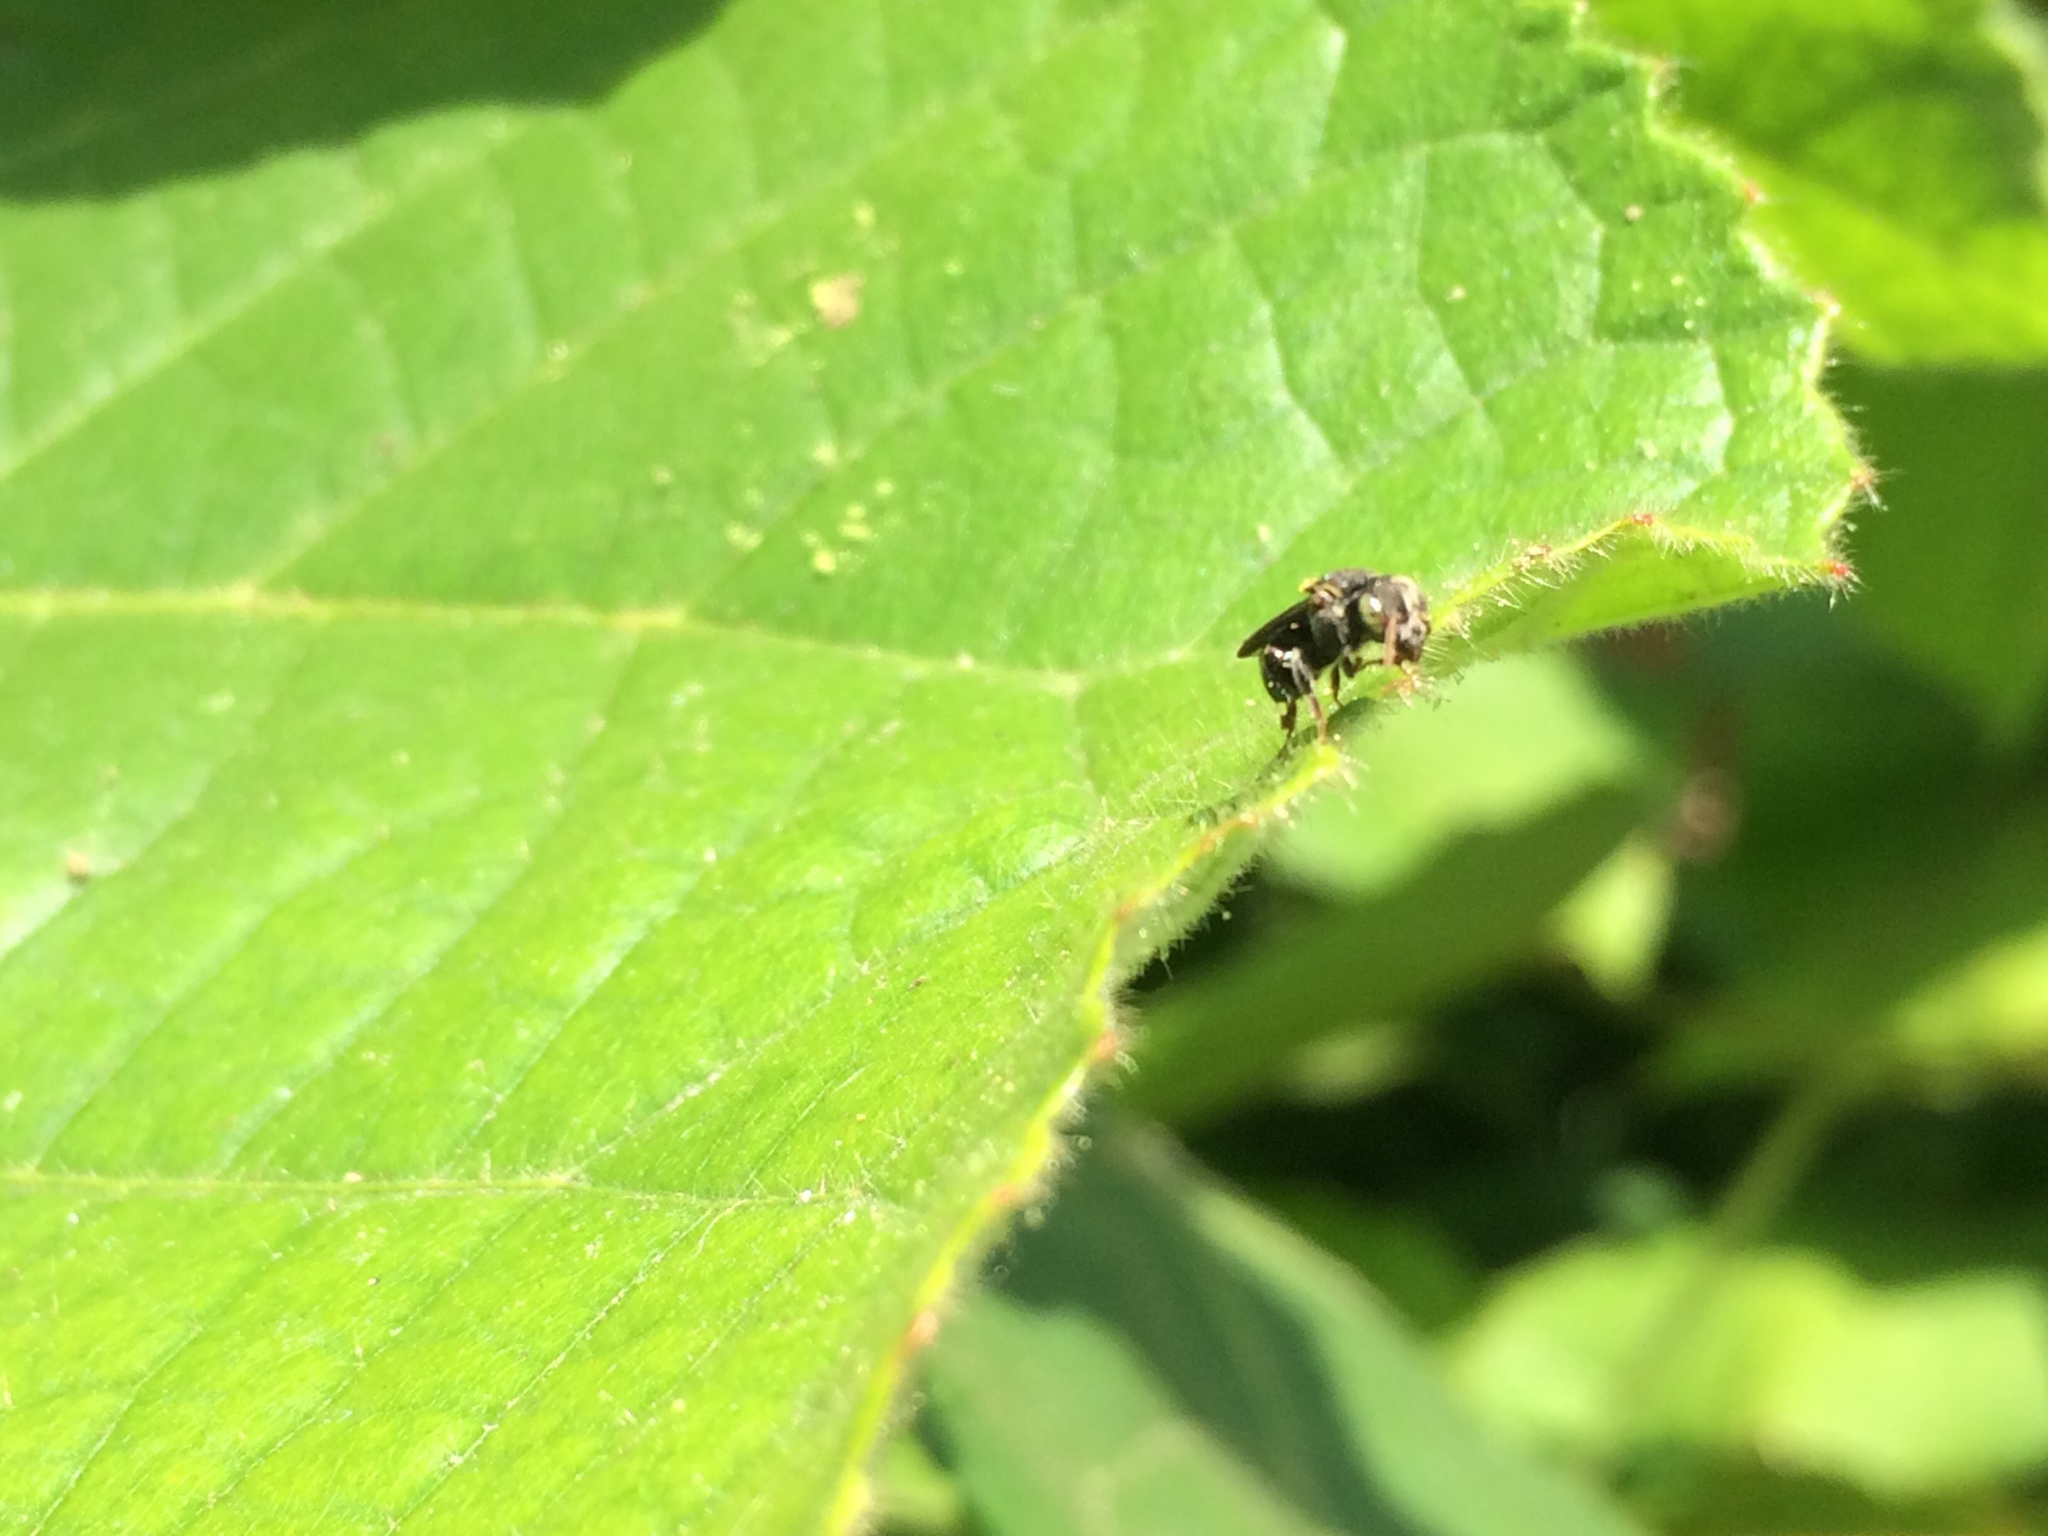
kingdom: Animalia
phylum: Arthropoda
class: Insecta
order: Hymenoptera
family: Apidae
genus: Nannotrigona
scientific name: Nannotrigona perilampoides
